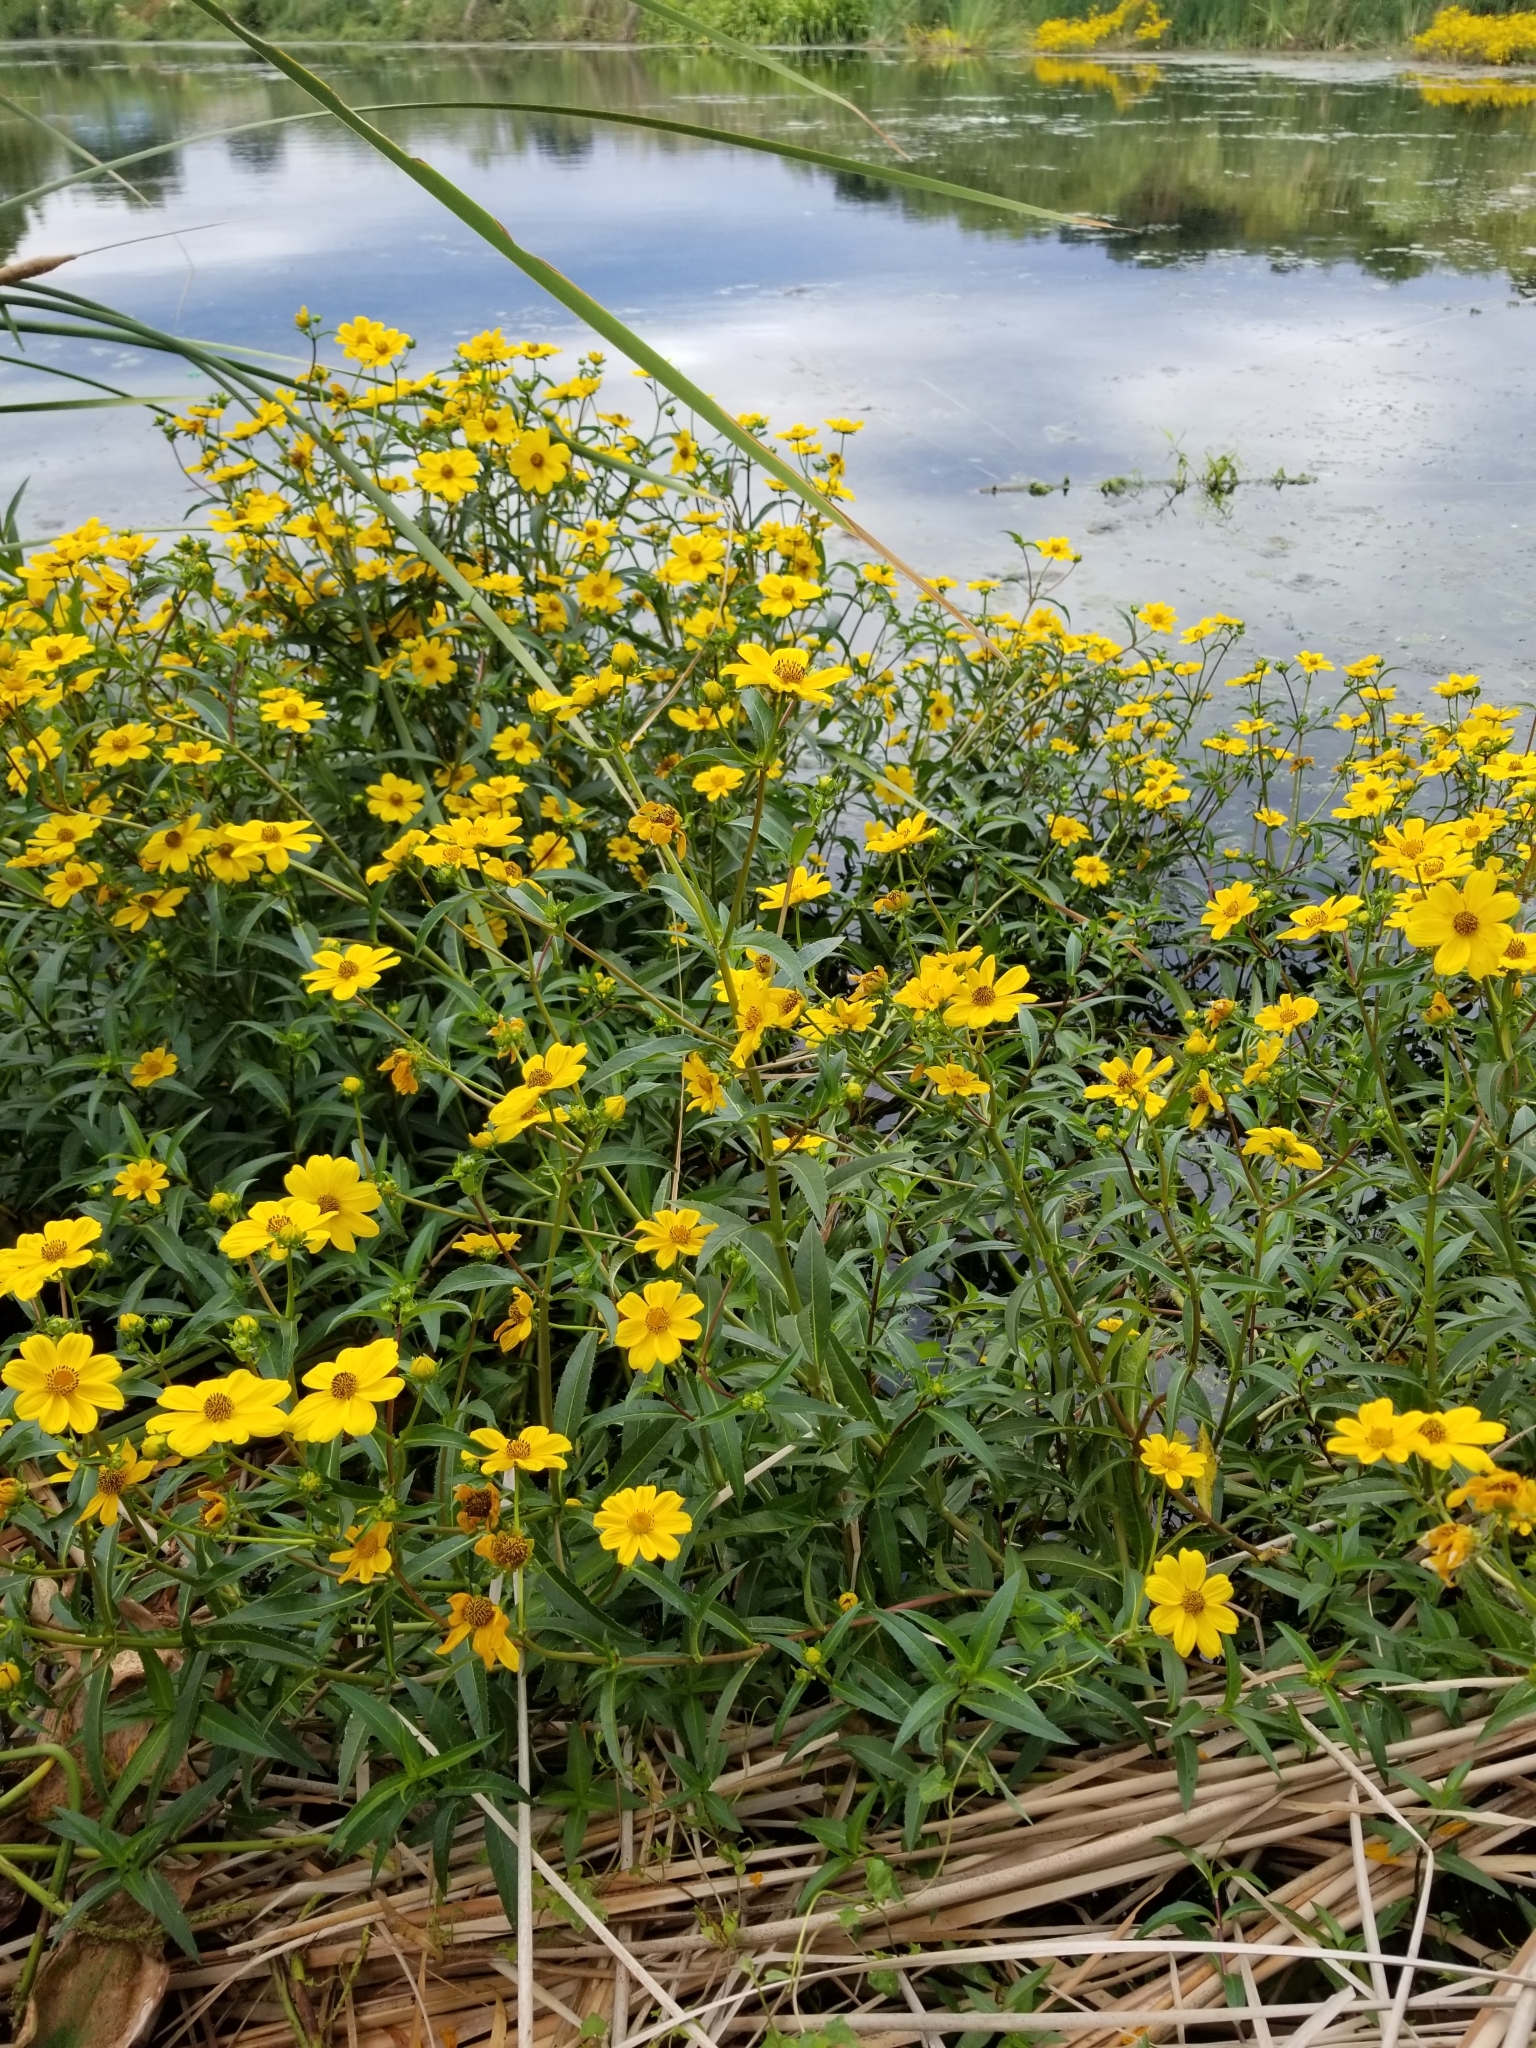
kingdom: Plantae
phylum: Tracheophyta
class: Magnoliopsida
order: Asterales
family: Asteraceae
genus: Bidens
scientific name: Bidens laevis
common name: Larger bur-marigold
